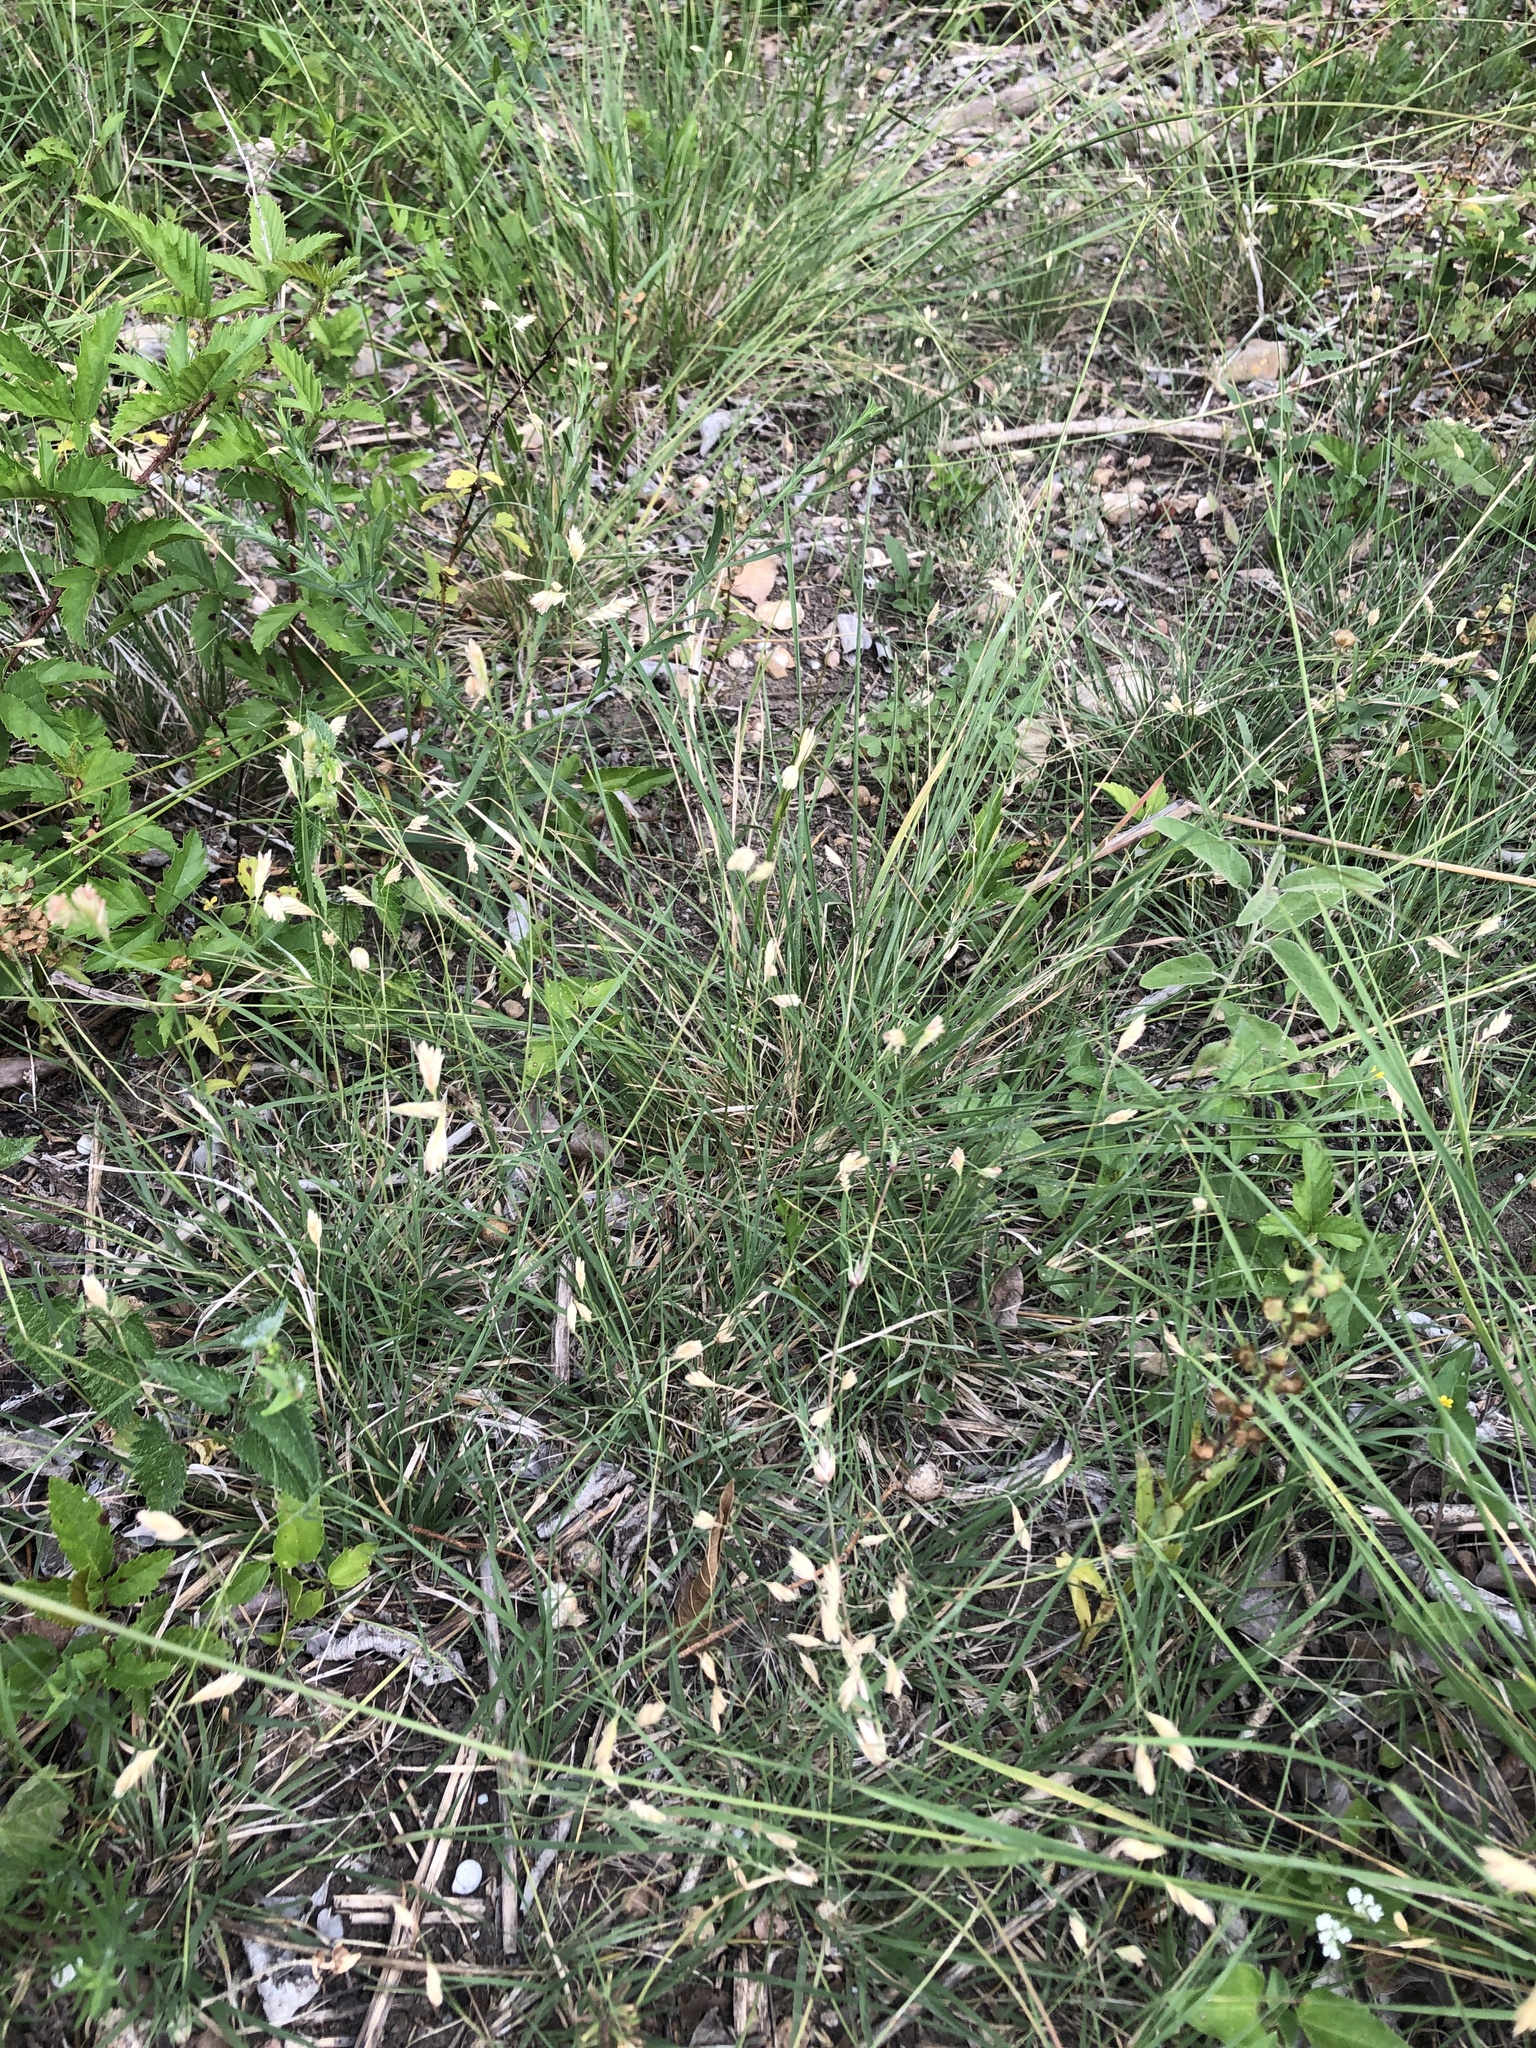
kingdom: Plantae
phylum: Tracheophyta
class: Liliopsida
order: Poales
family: Poaceae
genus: Bouteloua
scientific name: Bouteloua dactyloides
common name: Buffalo grass
